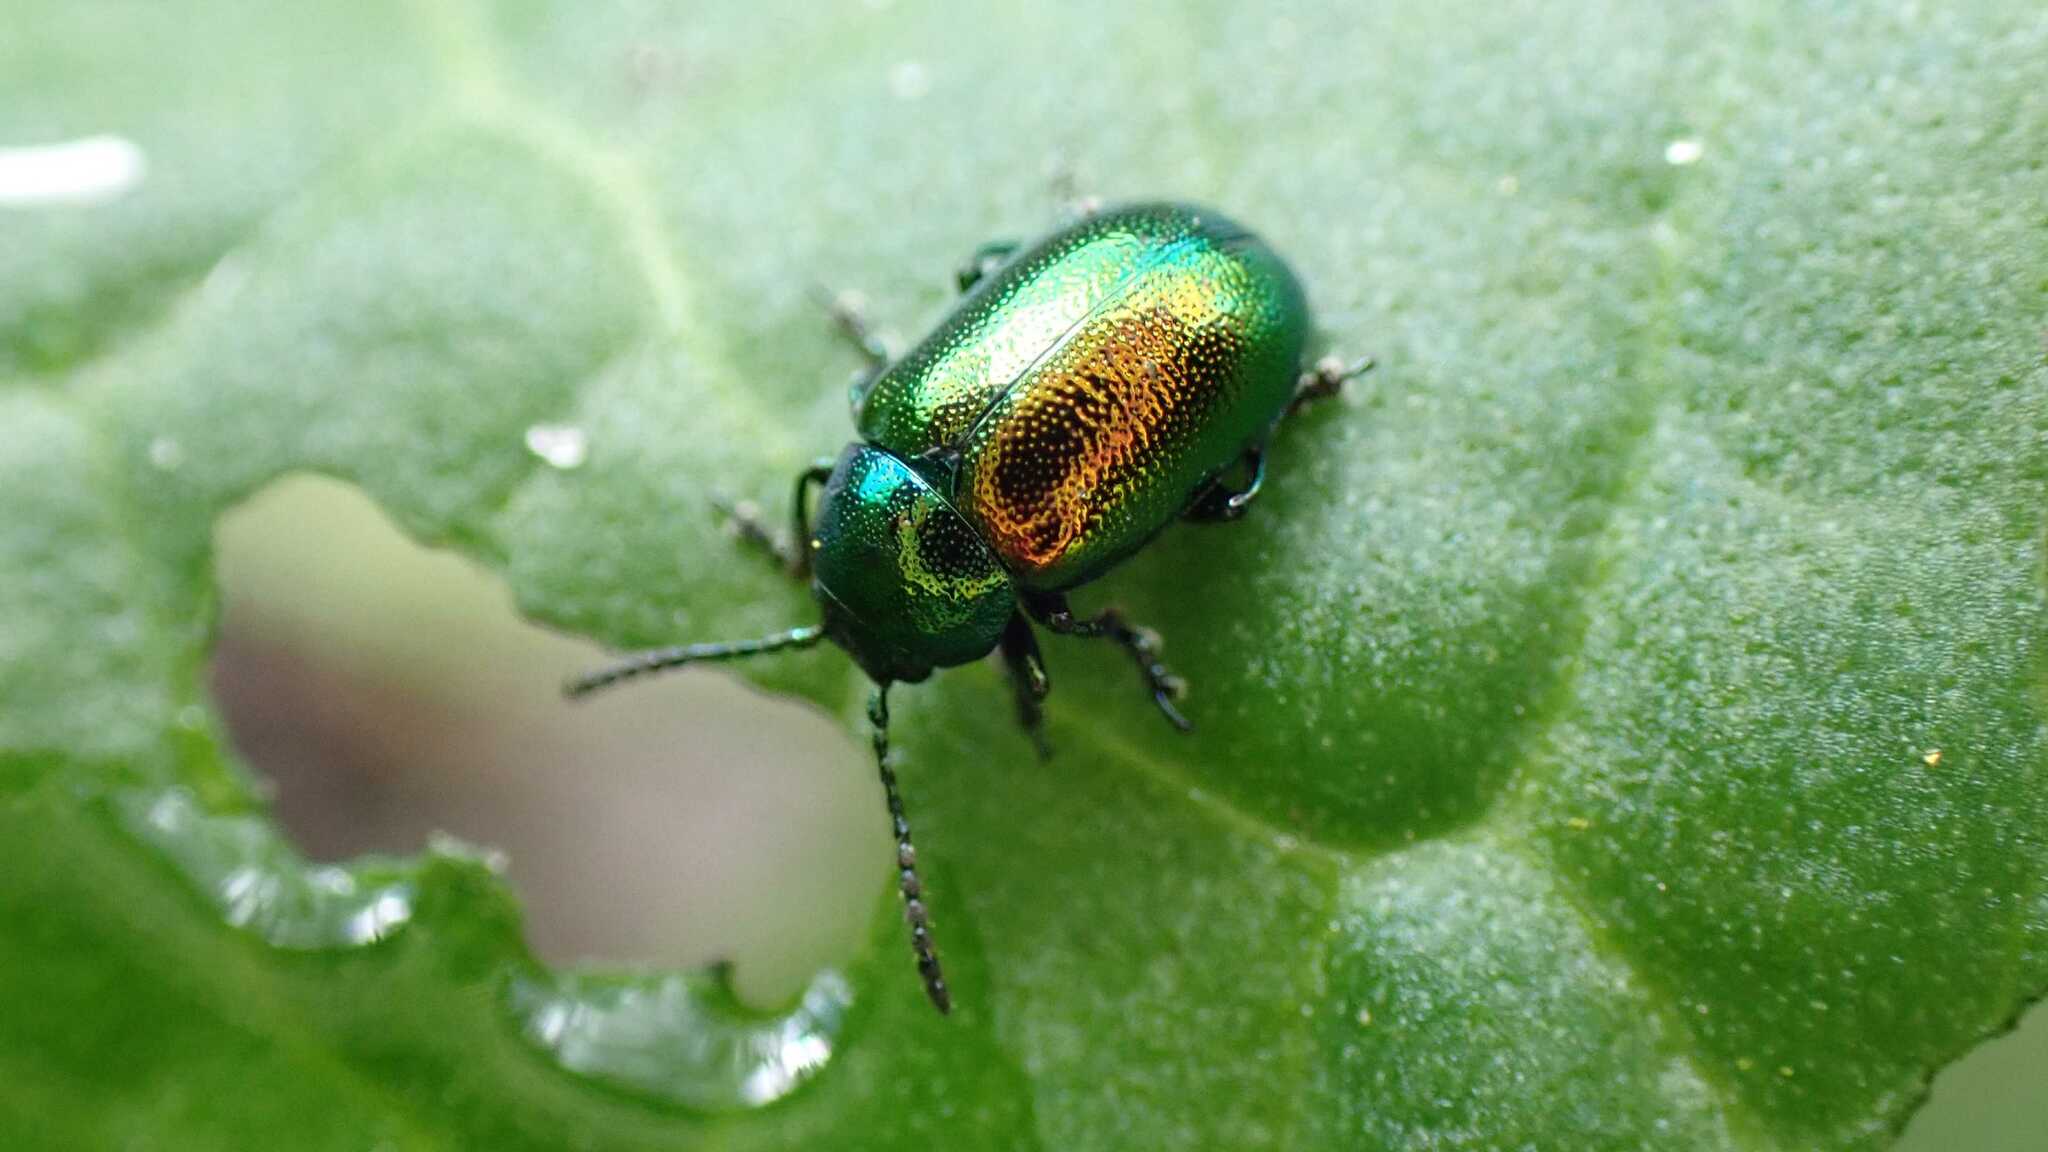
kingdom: Animalia
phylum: Arthropoda
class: Insecta
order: Coleoptera
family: Chrysomelidae
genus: Gastrophysa
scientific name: Gastrophysa viridula
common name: Green dock beetle
